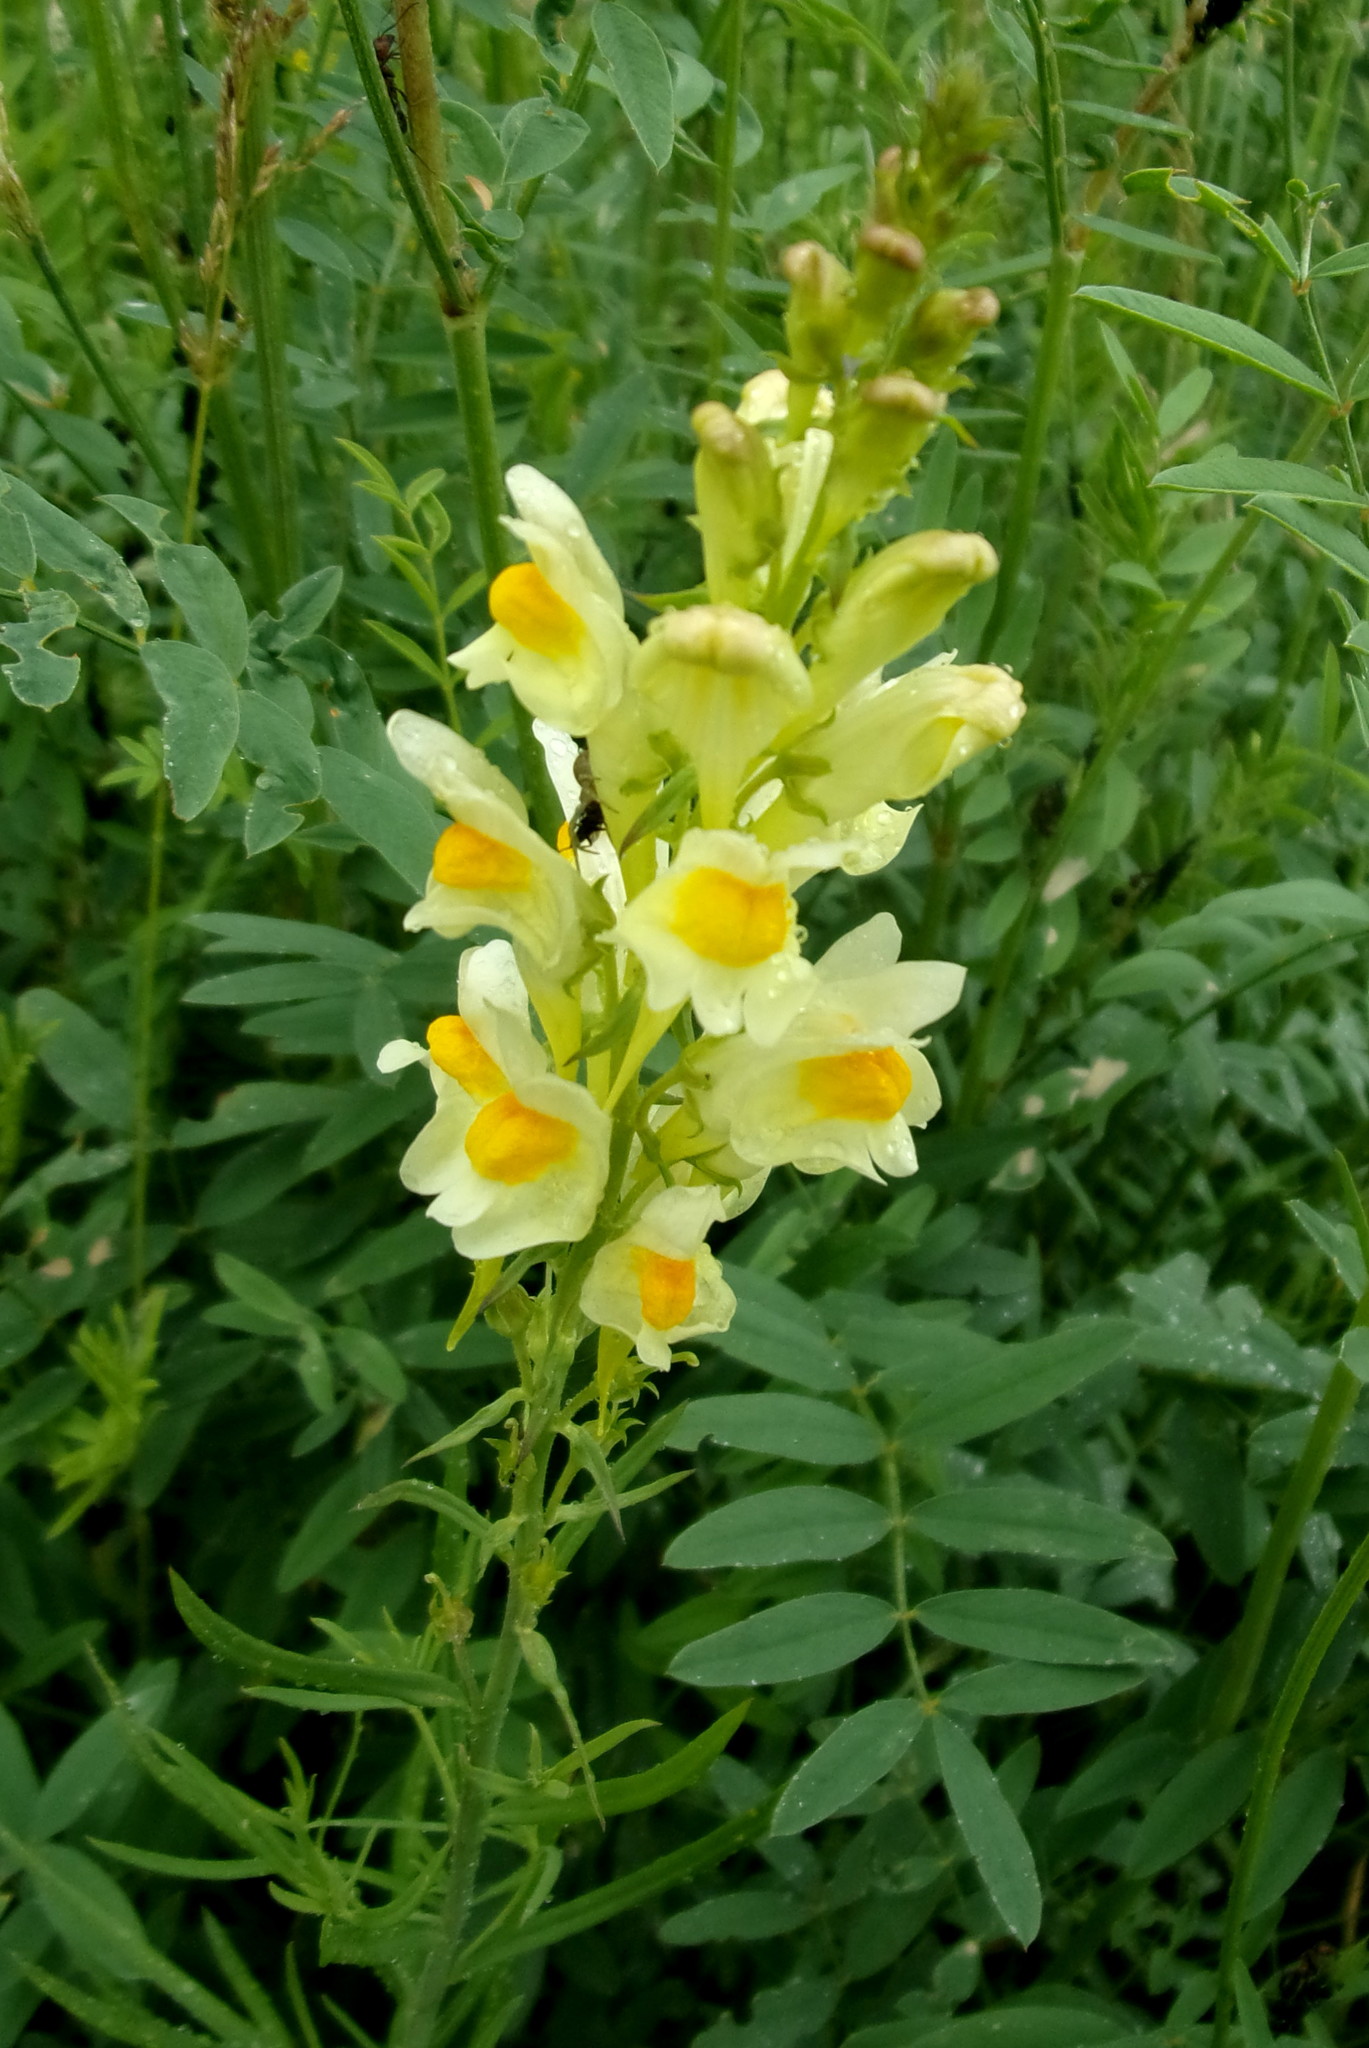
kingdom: Plantae
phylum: Tracheophyta
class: Magnoliopsida
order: Lamiales
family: Plantaginaceae
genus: Linaria
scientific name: Linaria vulgaris
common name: Butter and eggs
